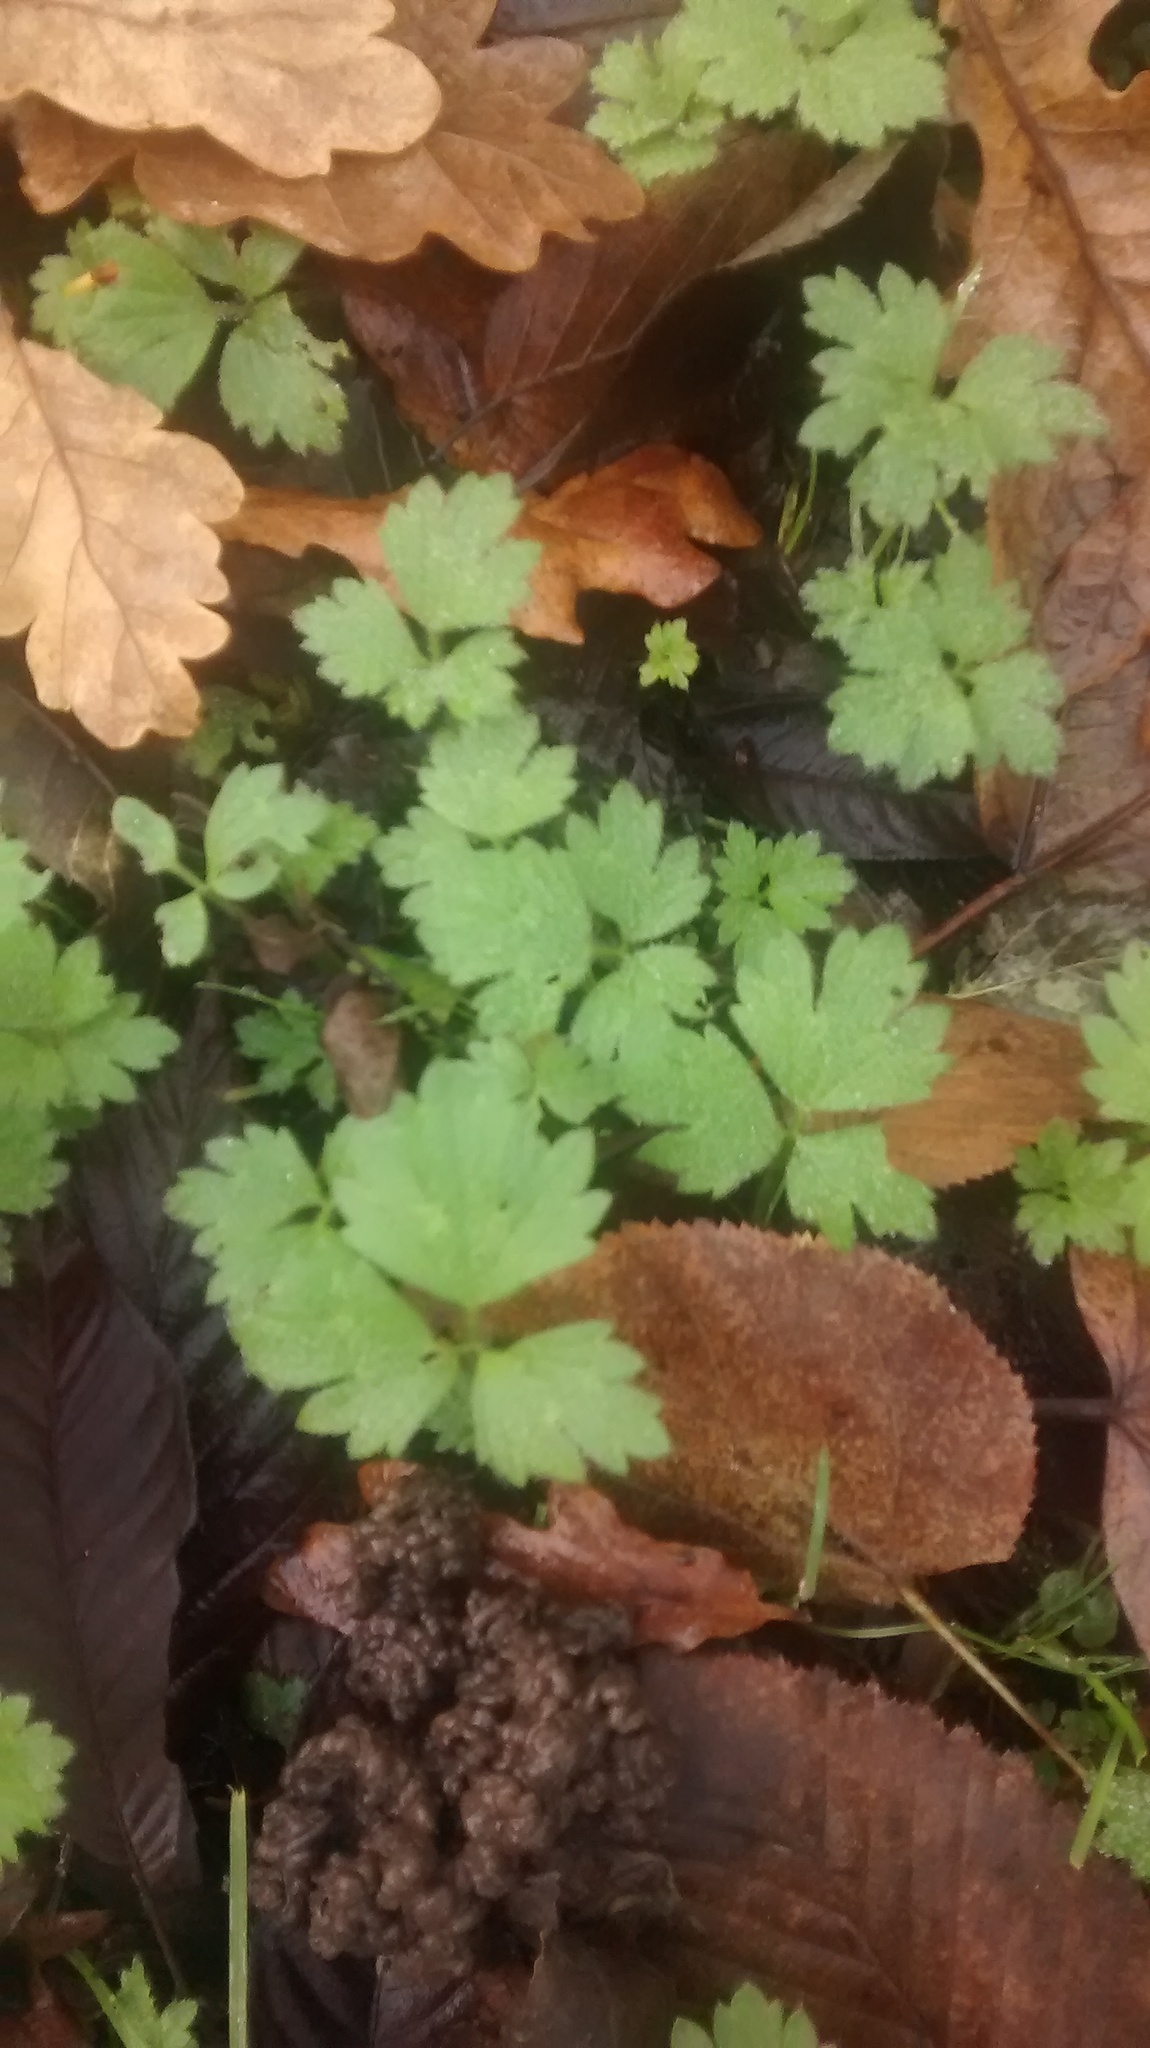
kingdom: Plantae
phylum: Tracheophyta
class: Magnoliopsida
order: Ranunculales
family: Ranunculaceae
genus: Ranunculus
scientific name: Ranunculus repens
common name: Creeping buttercup
